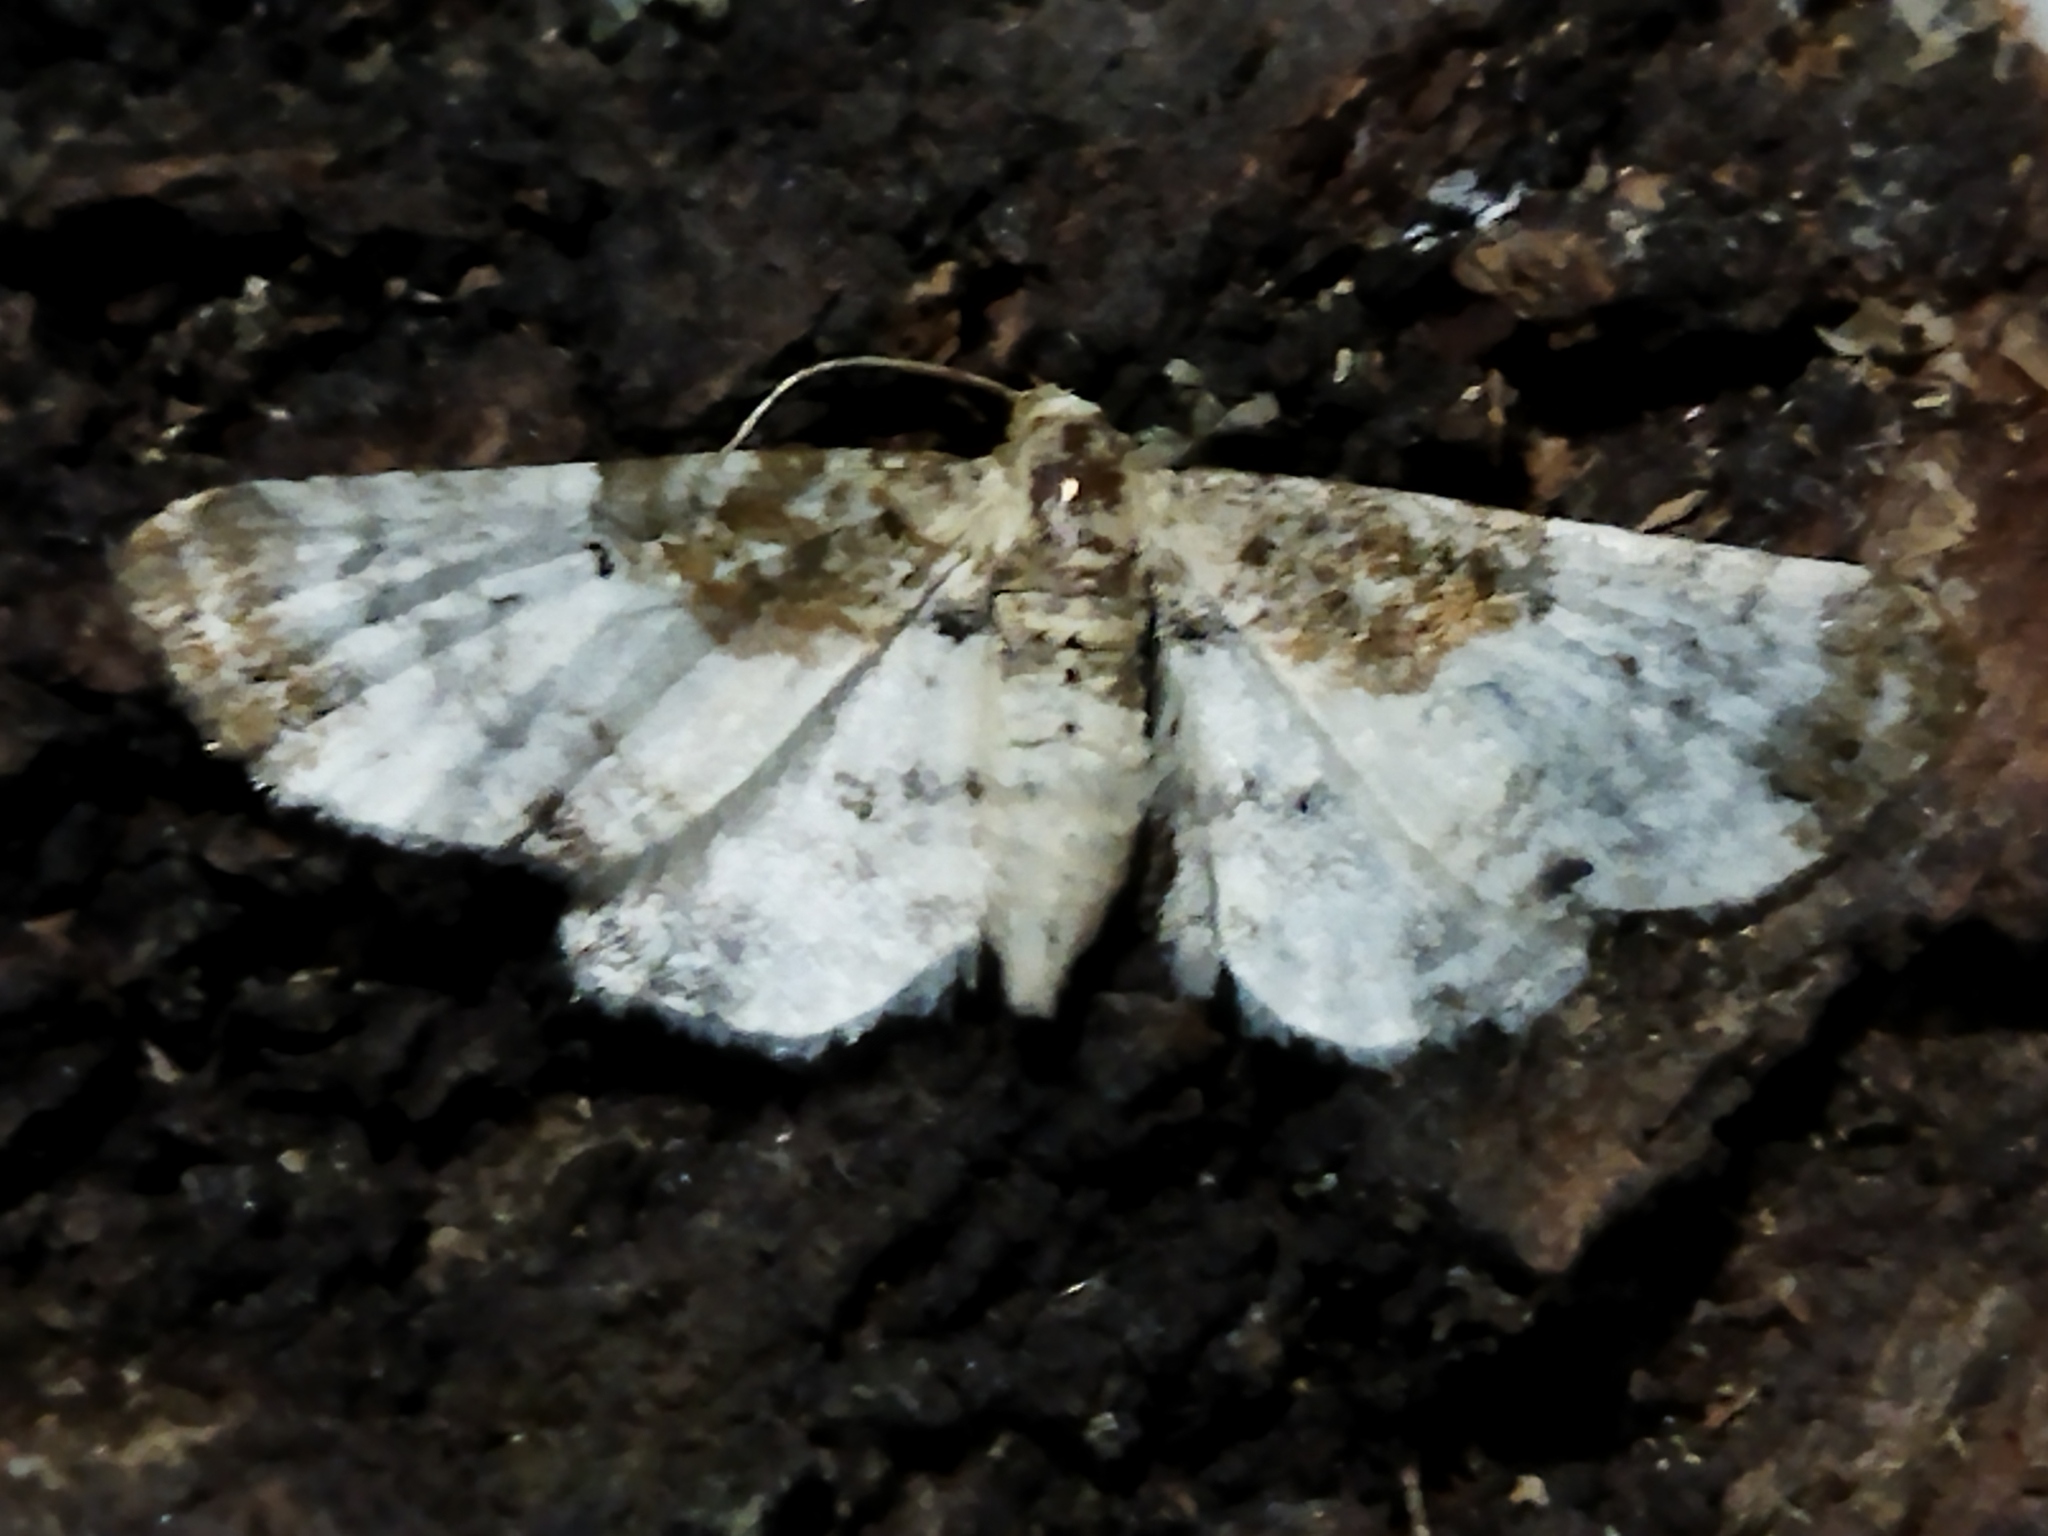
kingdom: Animalia
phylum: Arthropoda
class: Insecta
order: Lepidoptera
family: Geometridae
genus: Eupithecia
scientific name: Eupithecia breviculata
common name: Rusty-shouldered pug
